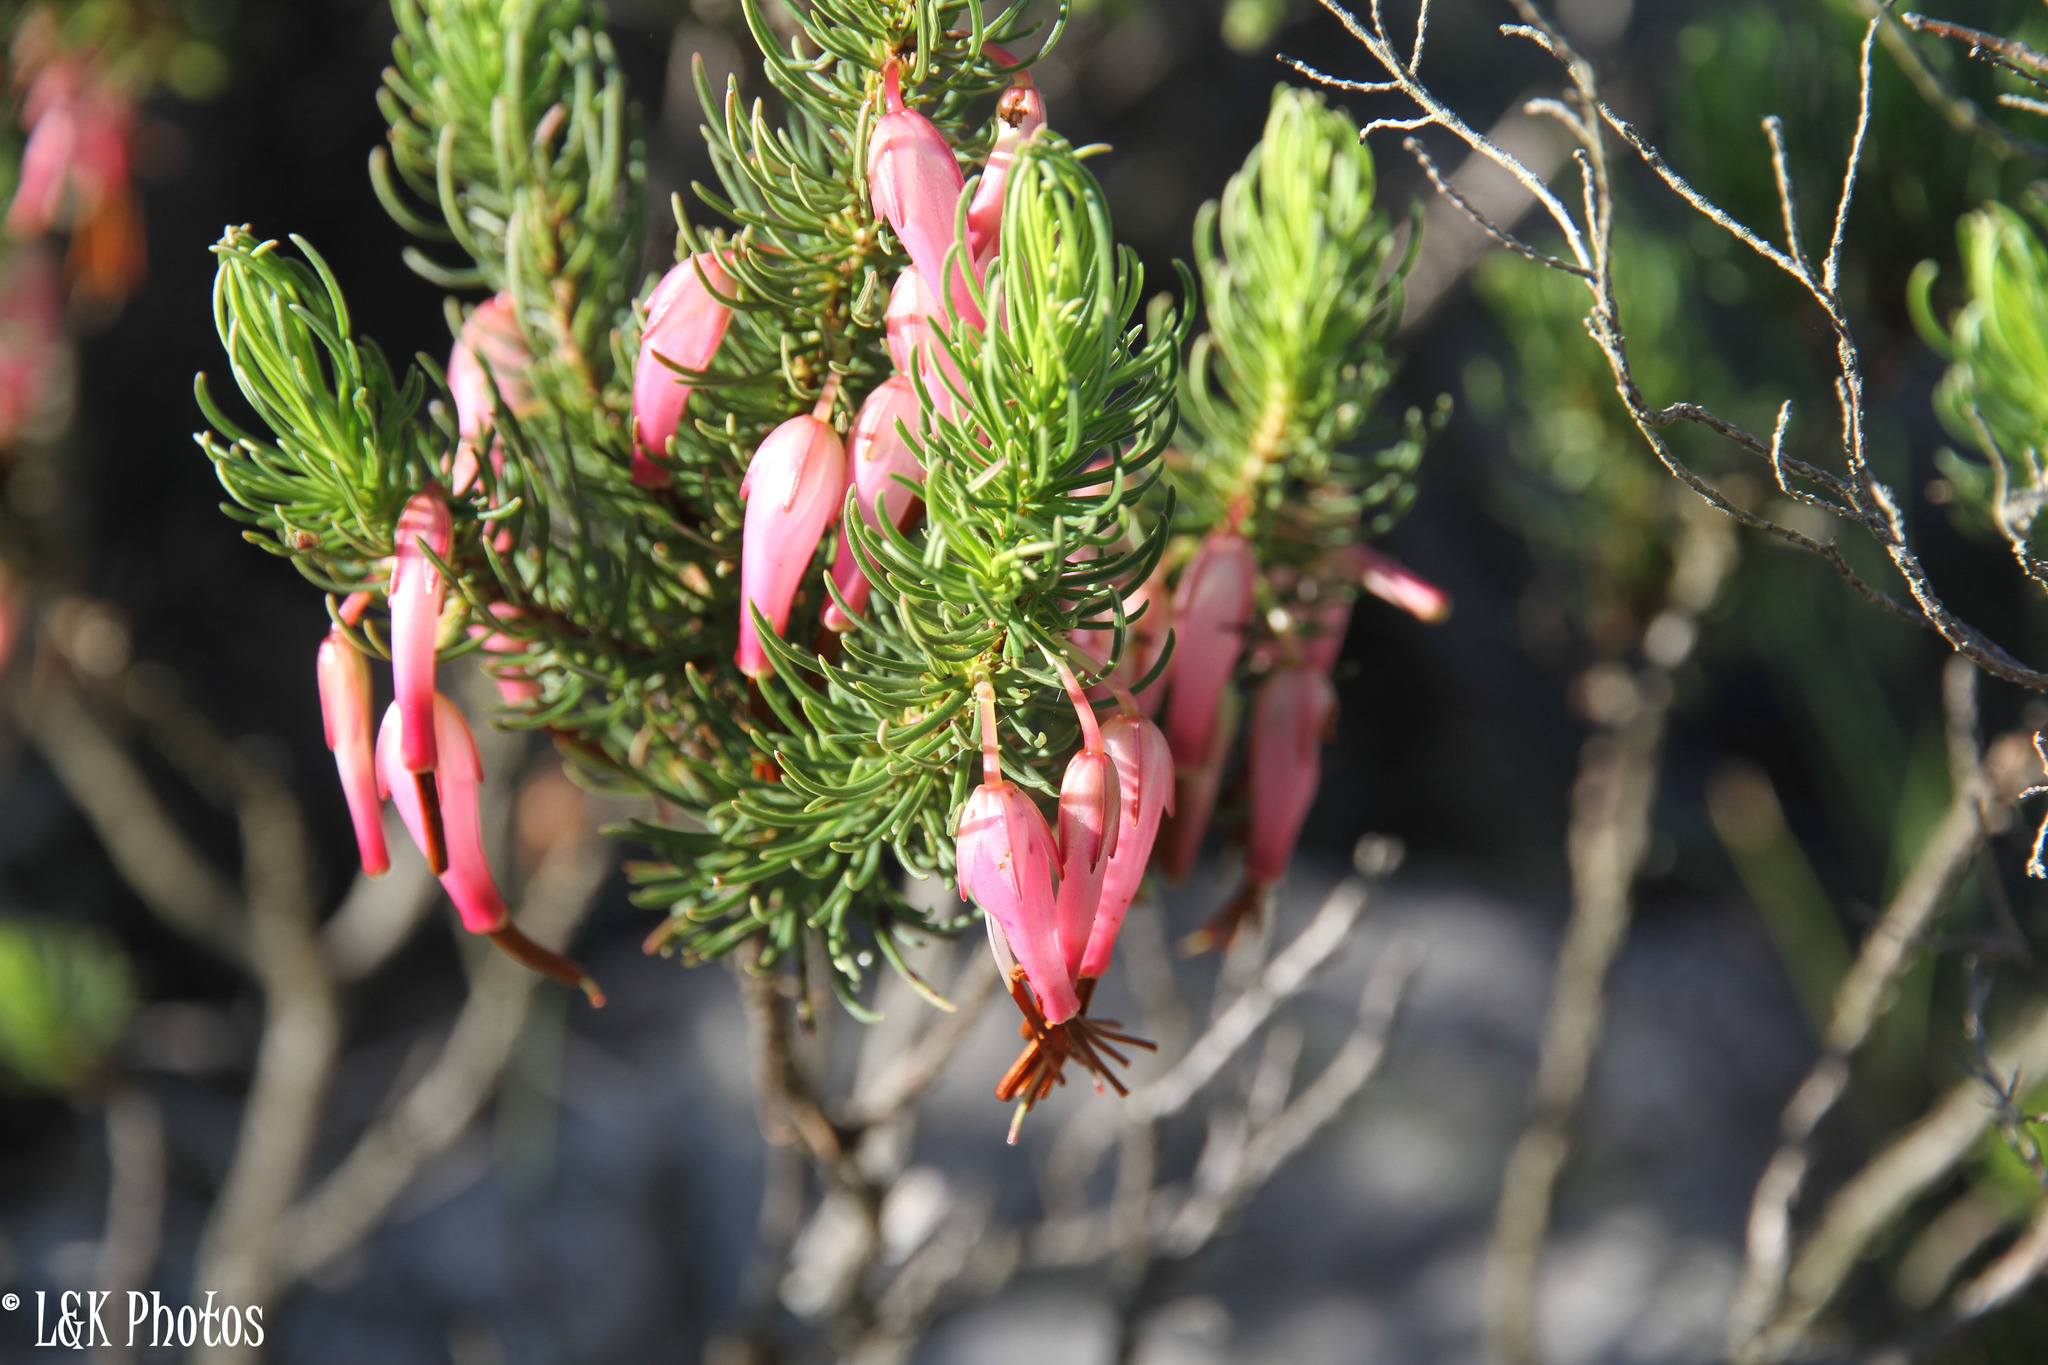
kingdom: Plantae
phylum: Tracheophyta
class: Magnoliopsida
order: Ericales
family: Ericaceae
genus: Erica
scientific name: Erica plukenetii
